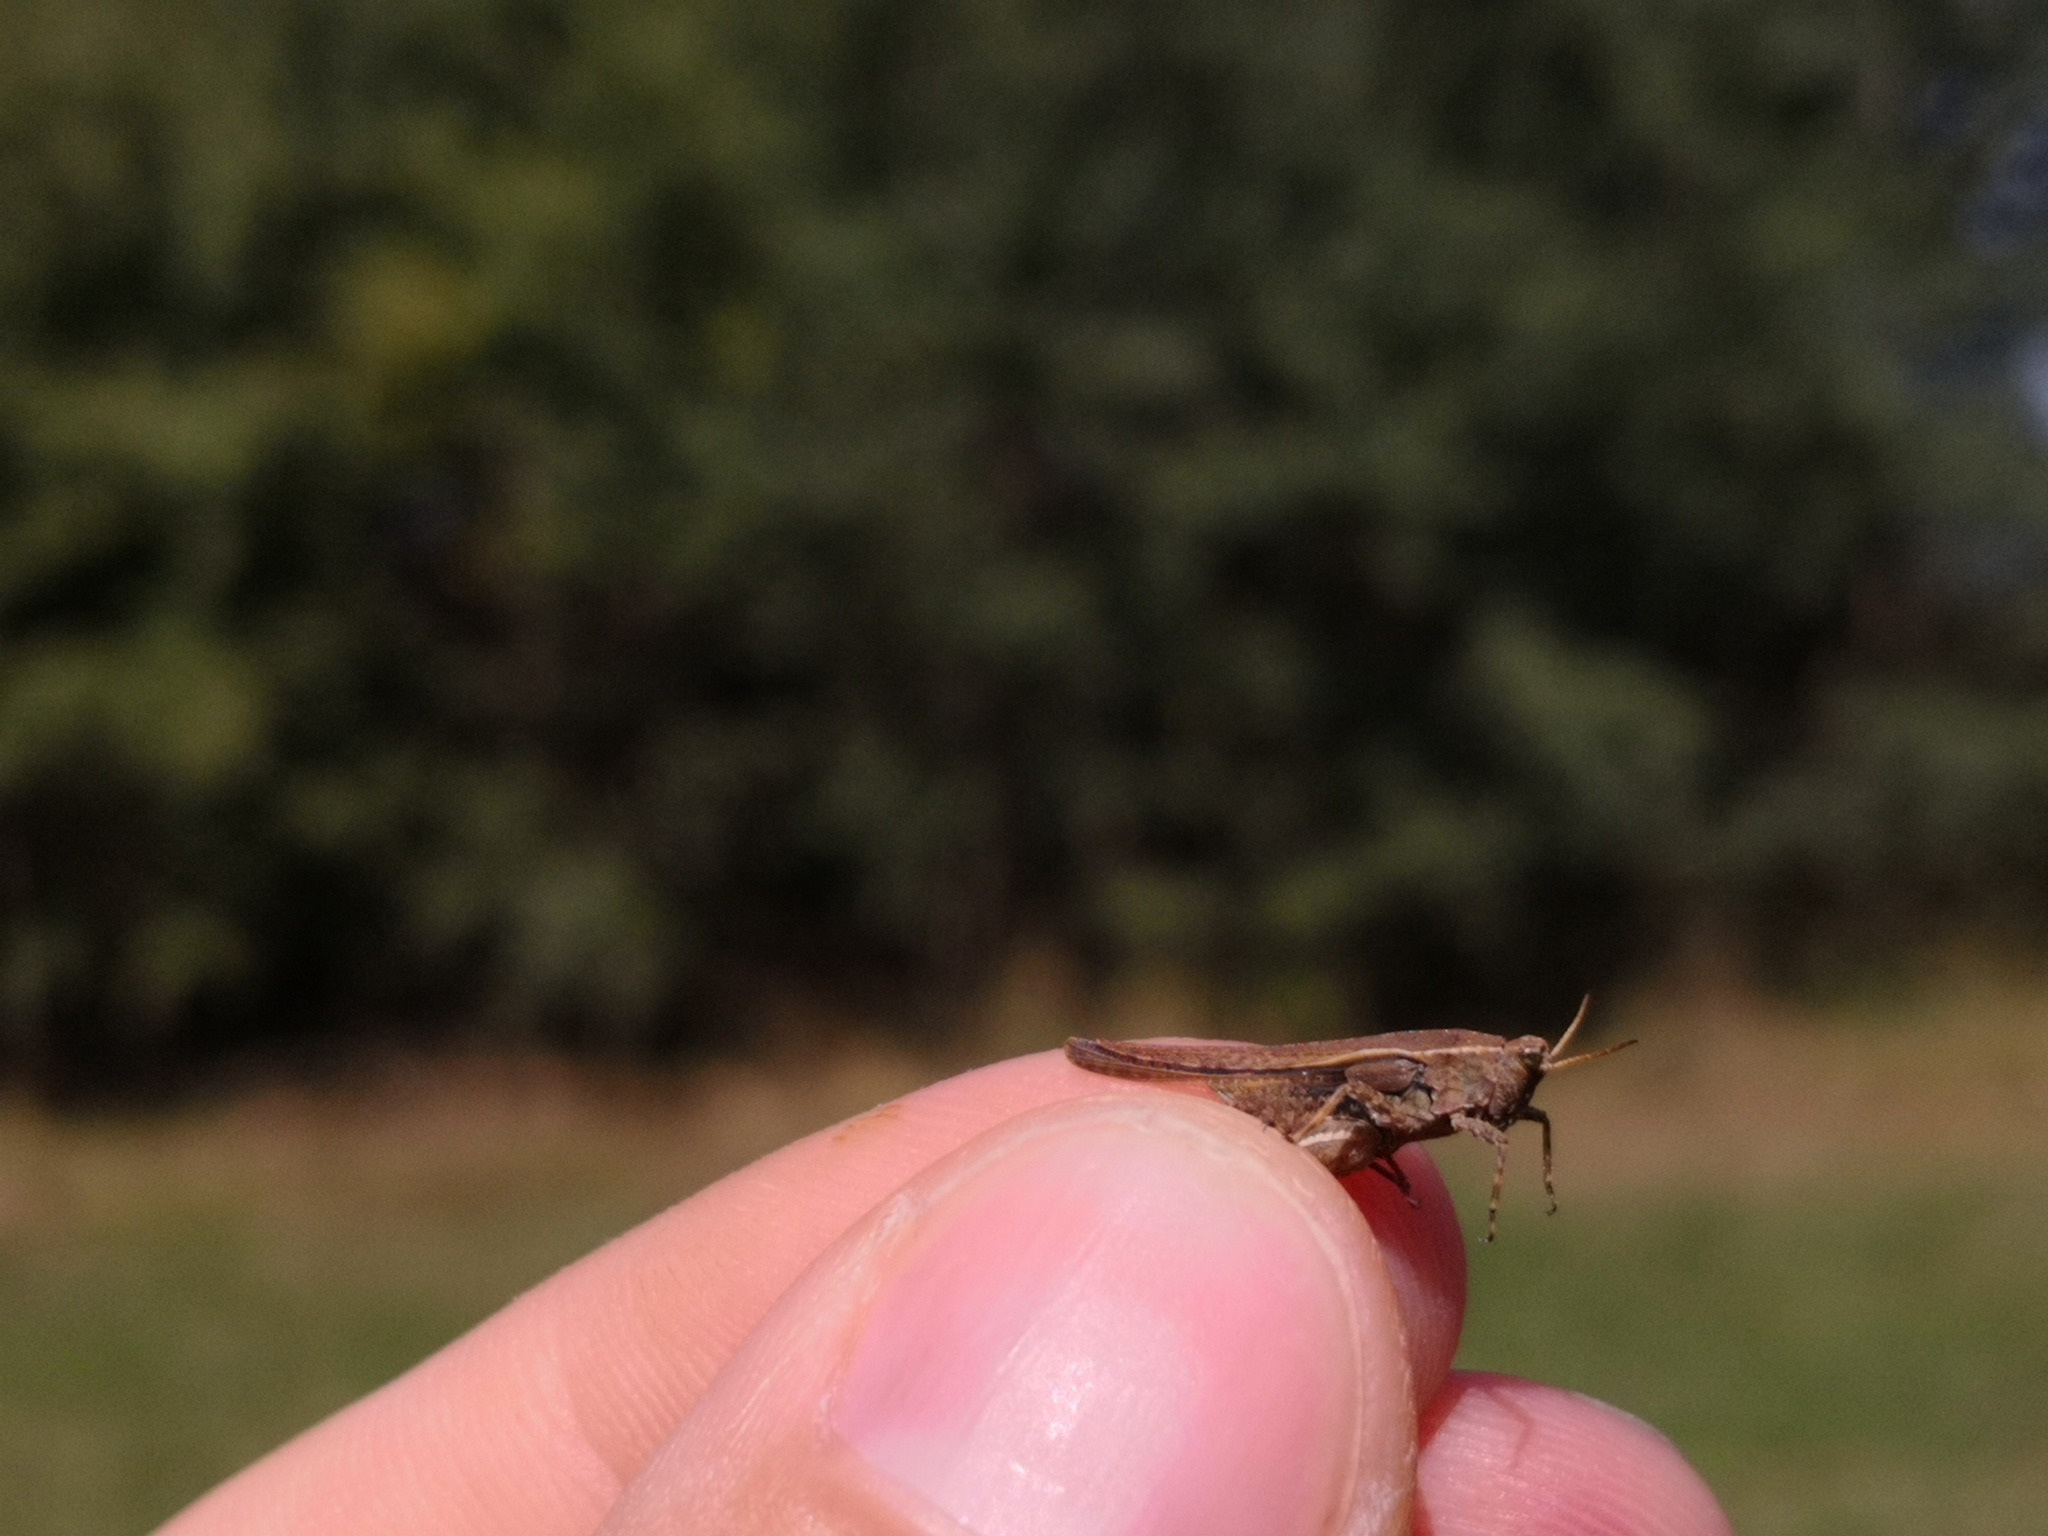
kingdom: Animalia
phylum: Arthropoda
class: Insecta
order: Orthoptera
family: Tetrigidae
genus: Tetrix
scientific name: Tetrix subulata
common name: Slender ground-hopper
